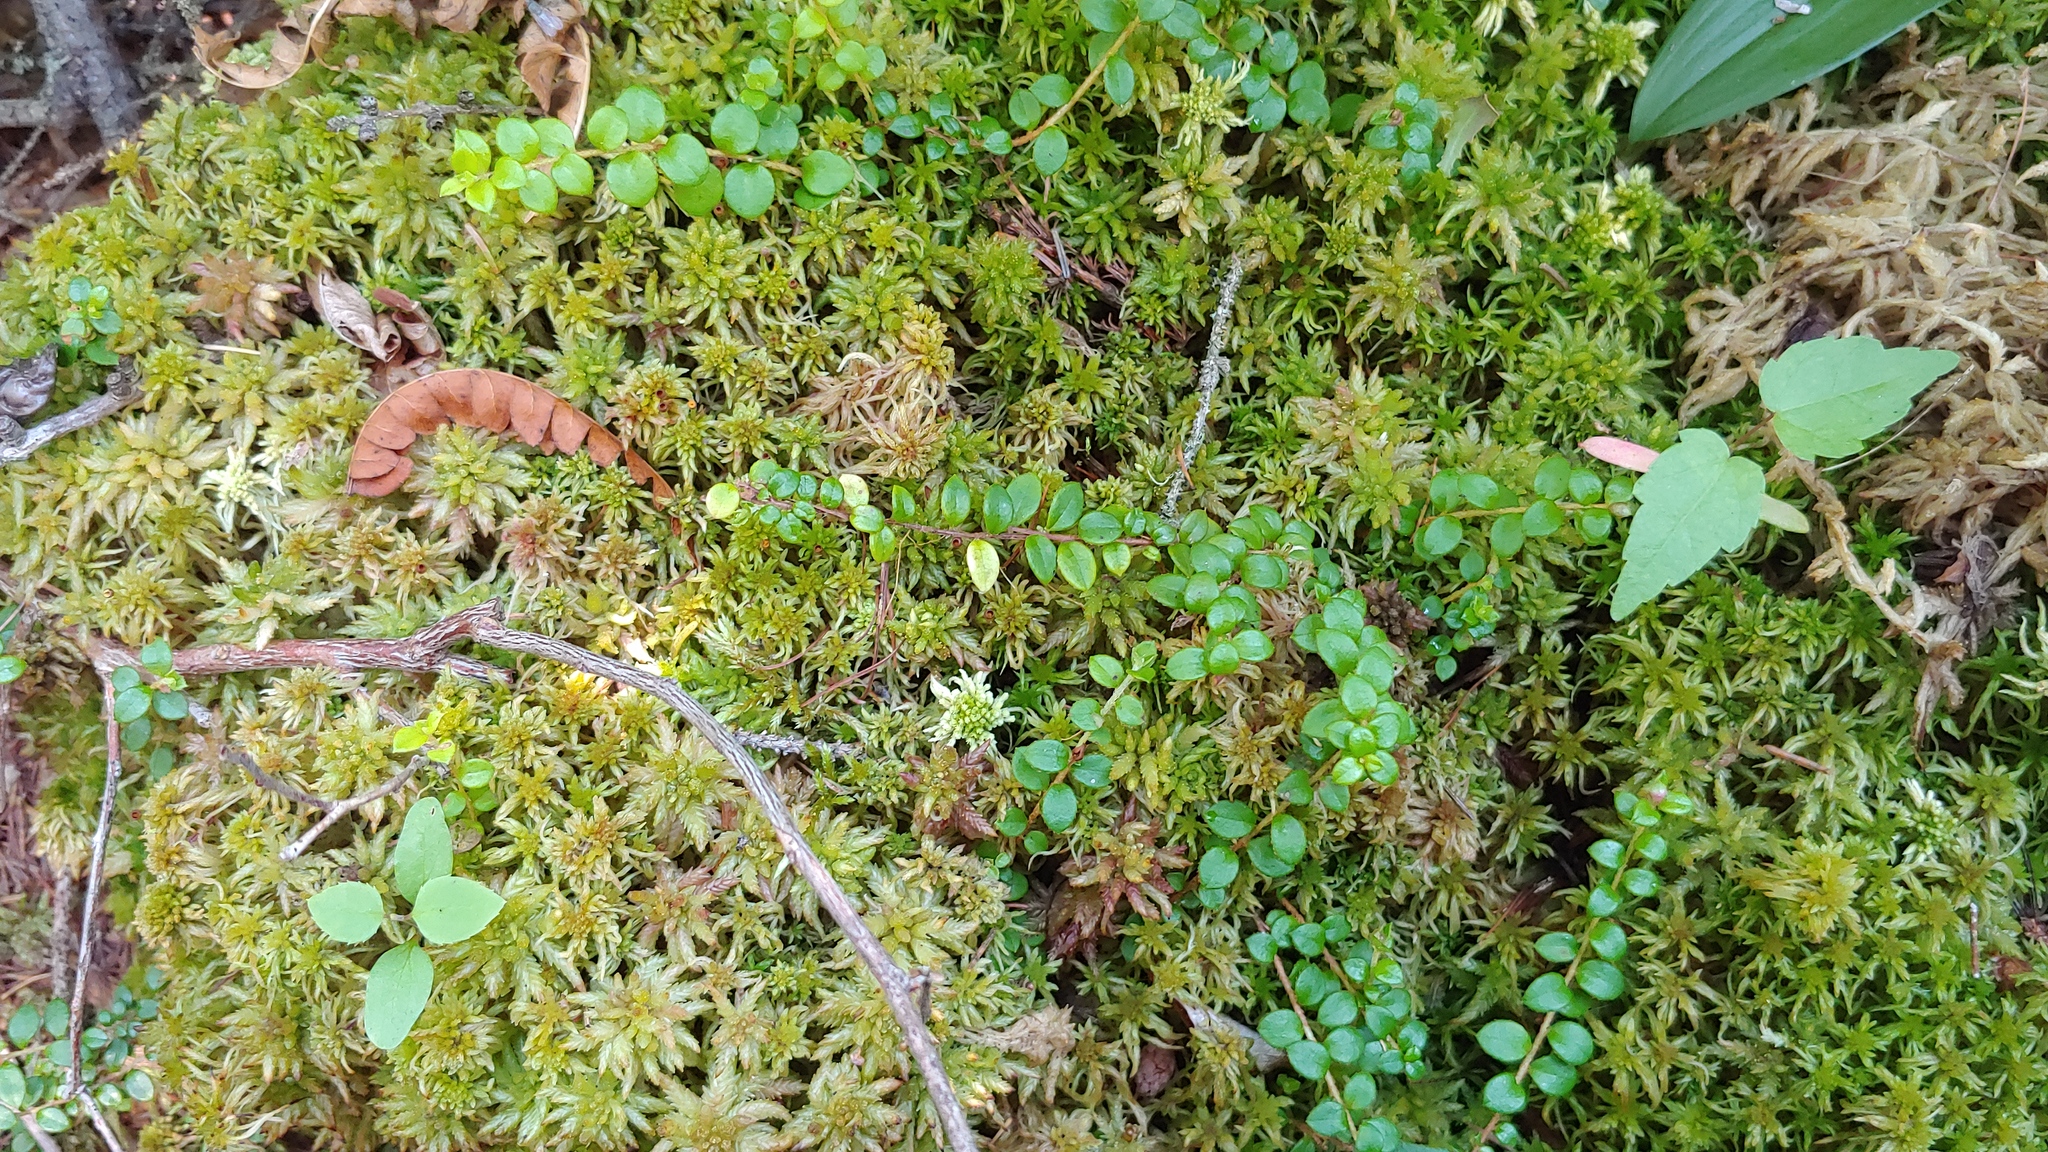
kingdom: Plantae
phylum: Tracheophyta
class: Magnoliopsida
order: Ericales
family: Ericaceae
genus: Gaultheria
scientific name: Gaultheria hispidula
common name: Cancer wintergreen
